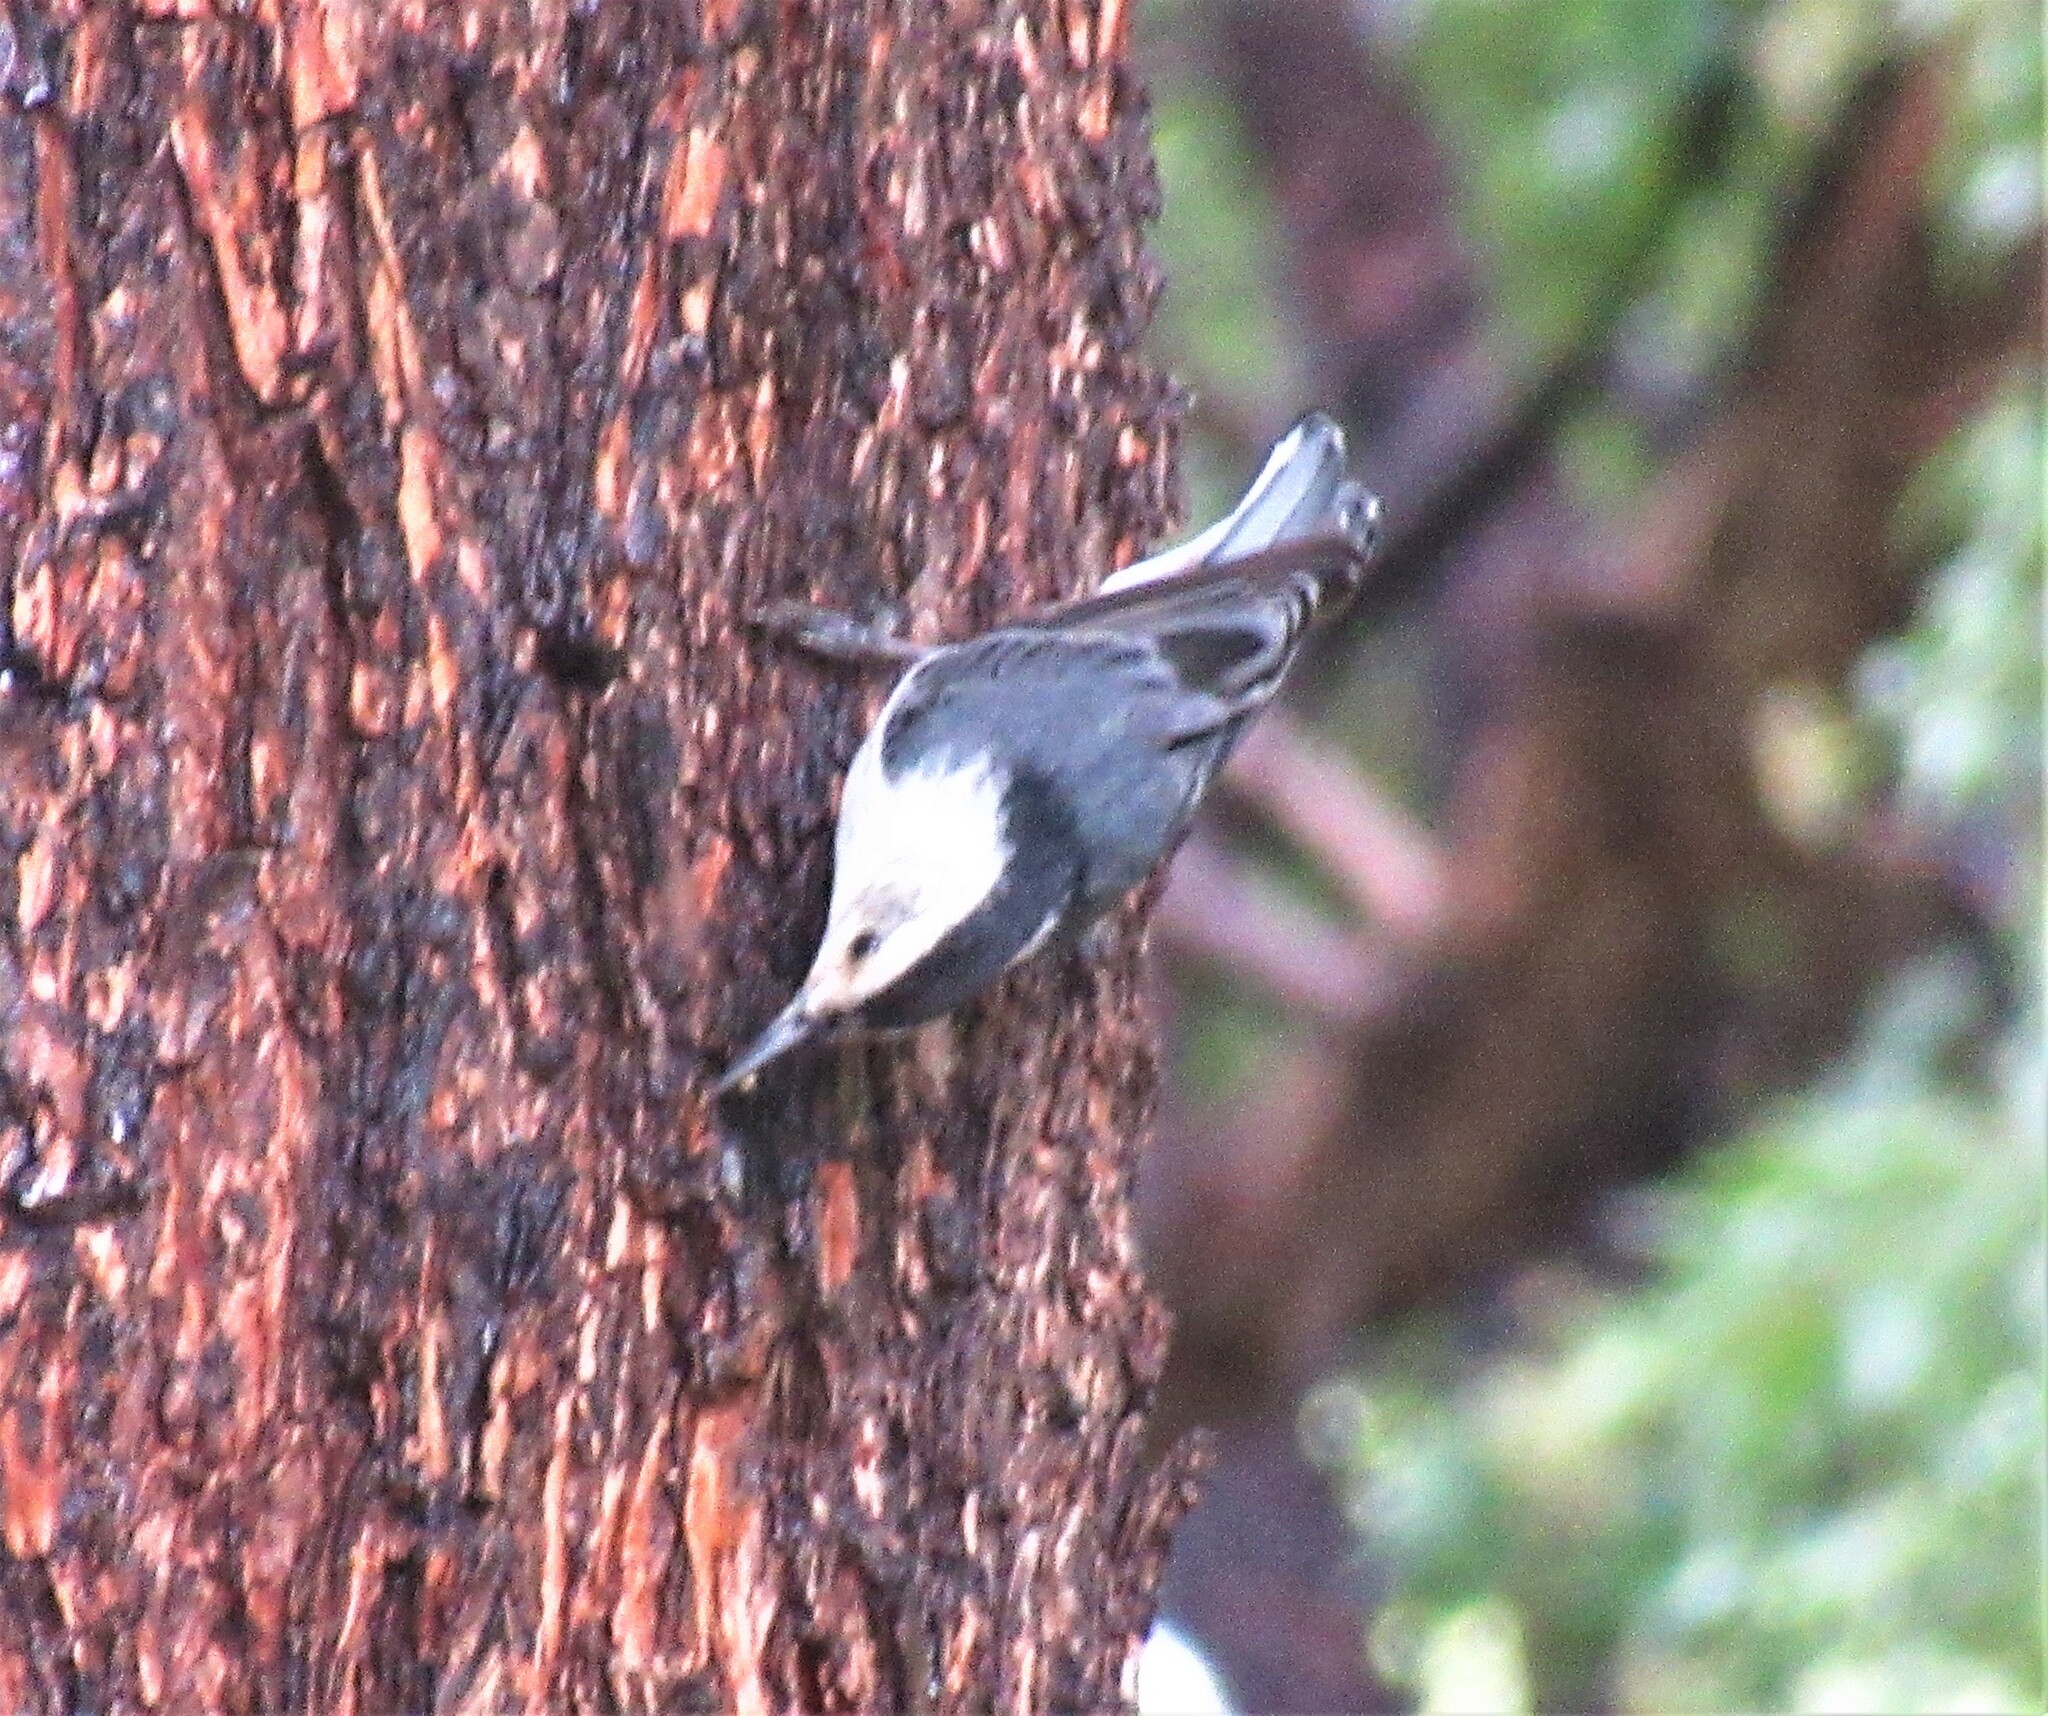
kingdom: Animalia
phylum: Chordata
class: Aves
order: Passeriformes
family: Sittidae
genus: Sitta
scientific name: Sitta carolinensis
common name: White-breasted nuthatch
